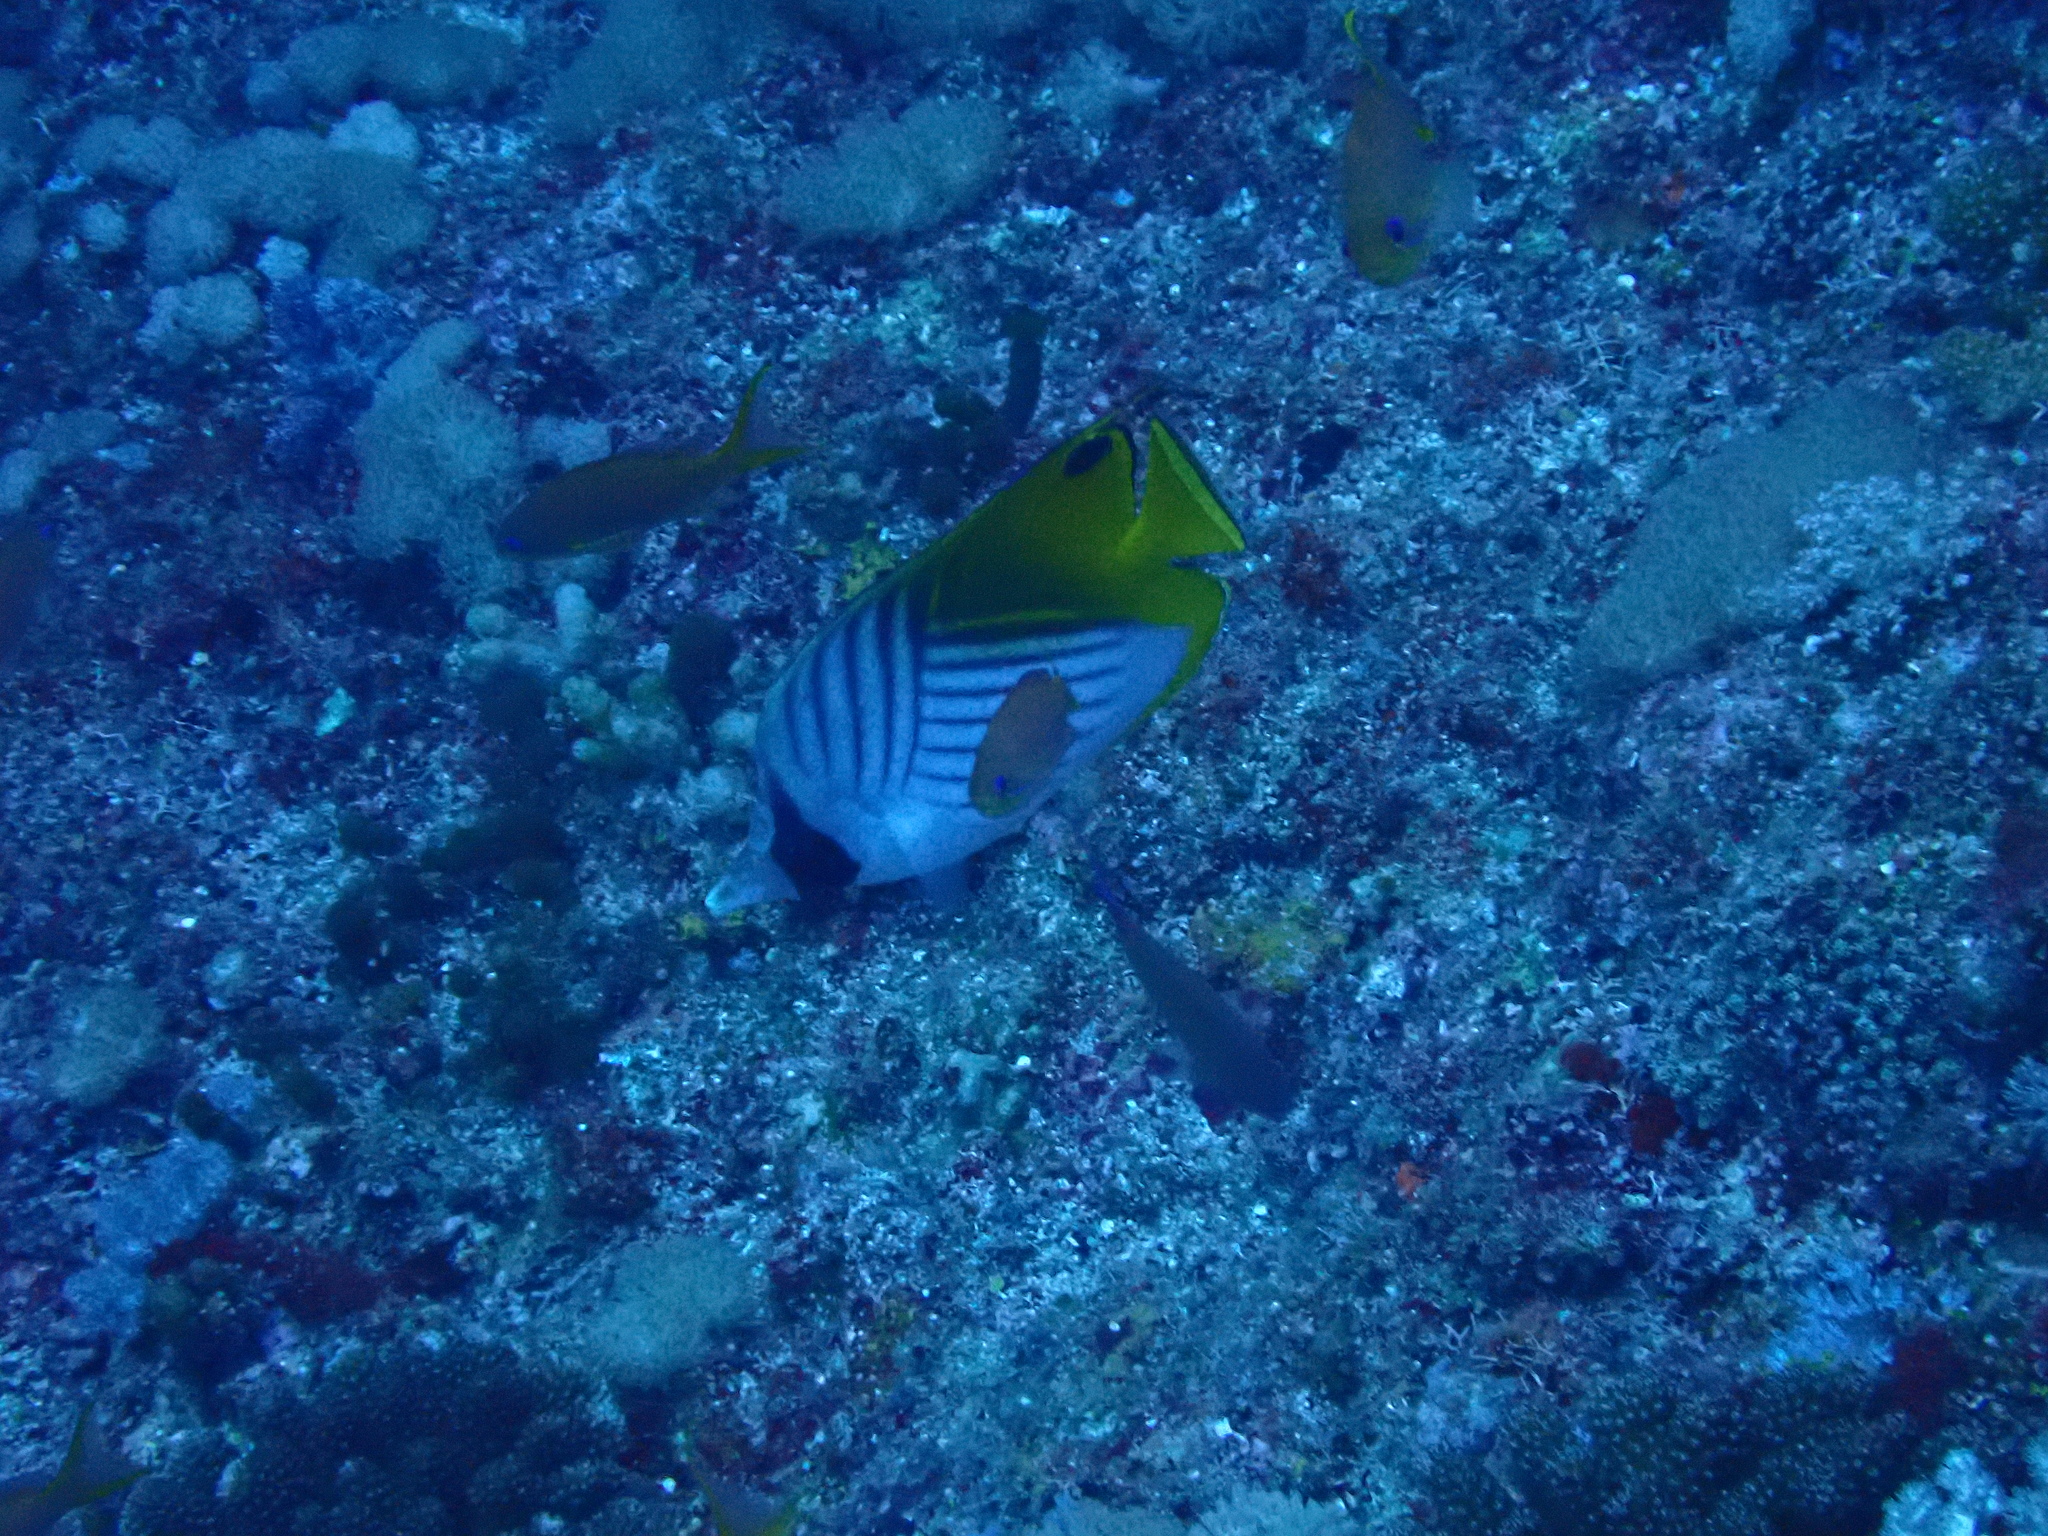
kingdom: Animalia
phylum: Chordata
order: Perciformes
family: Chaetodontidae
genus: Chaetodon
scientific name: Chaetodon auriga
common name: Threadfin butterflyfish
